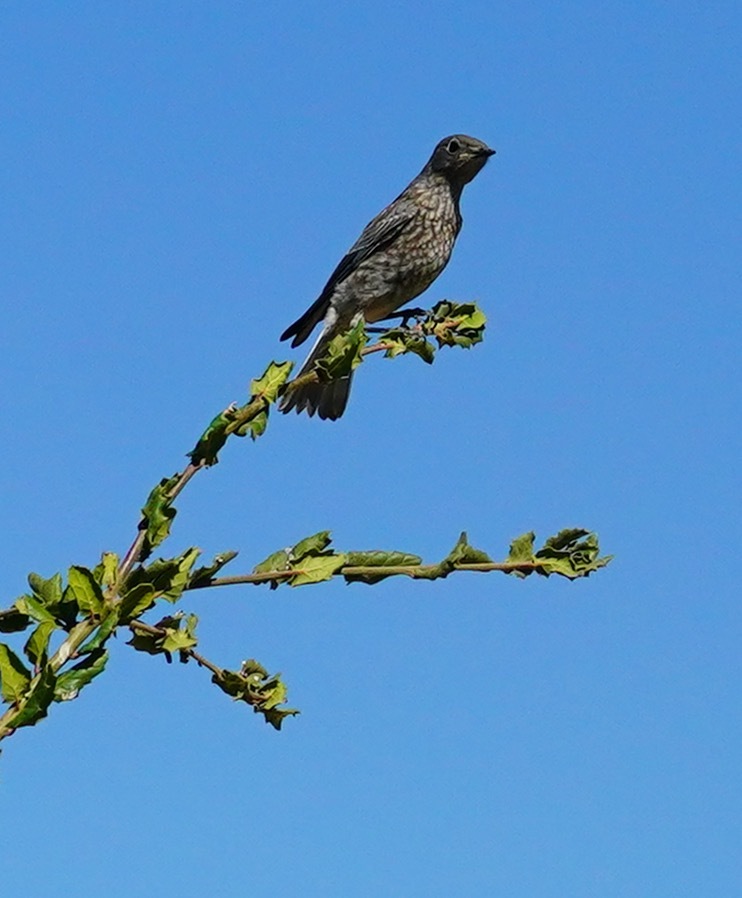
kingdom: Animalia
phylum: Chordata
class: Aves
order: Passeriformes
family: Turdidae
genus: Sialia
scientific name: Sialia mexicana
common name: Western bluebird
